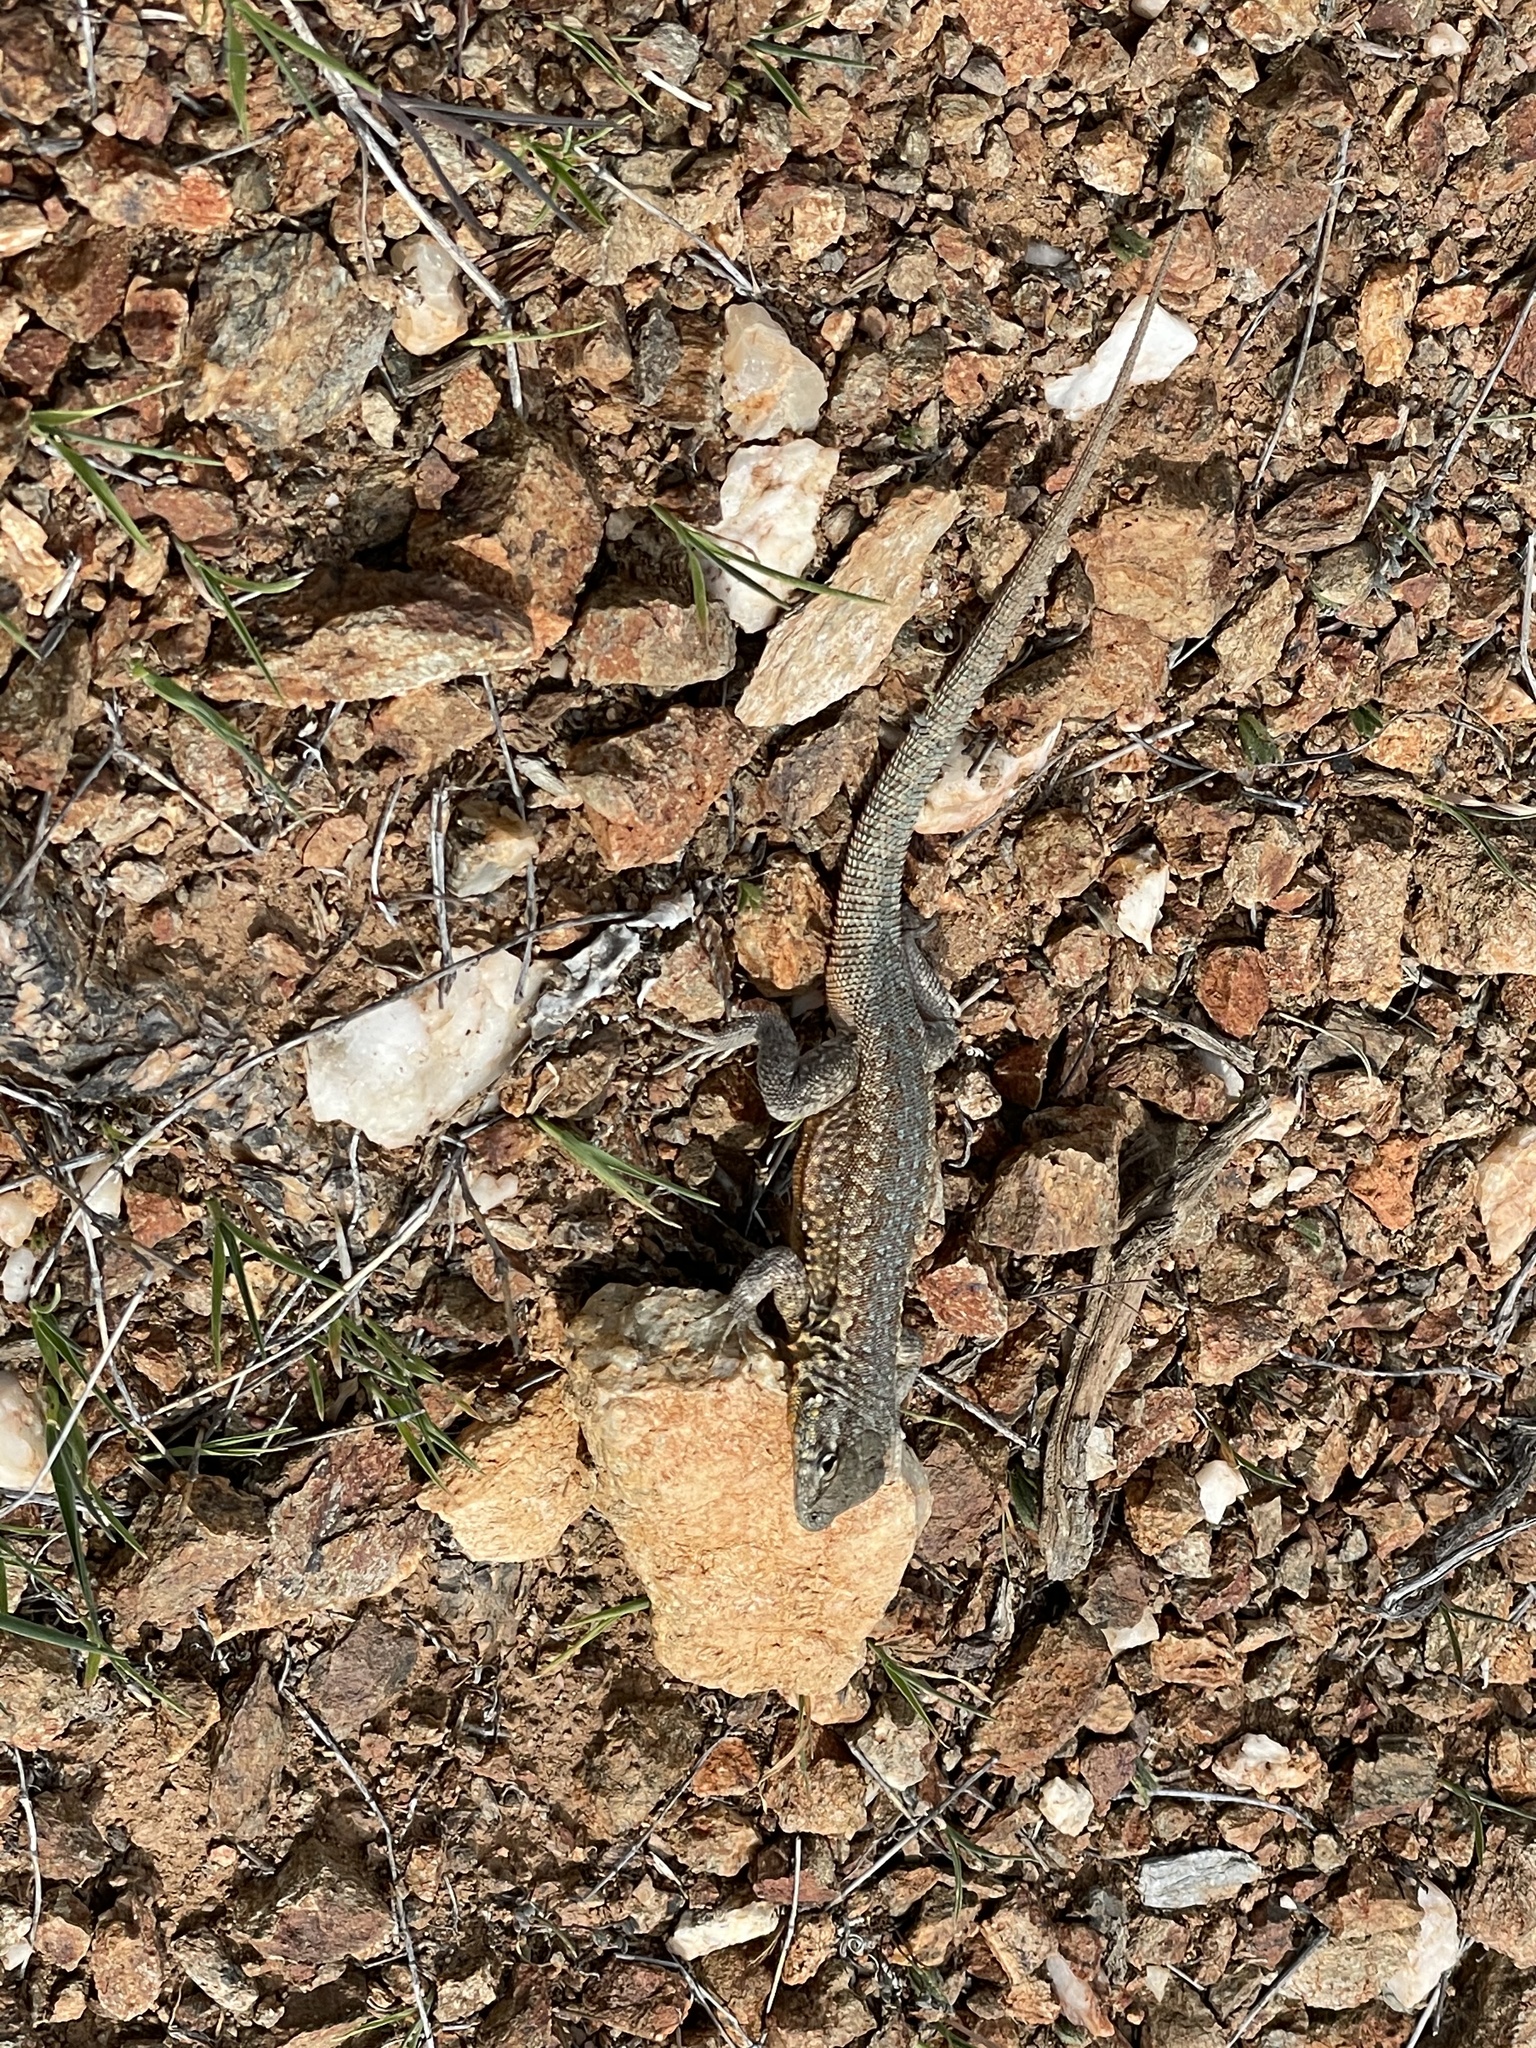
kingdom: Animalia
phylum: Chordata
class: Squamata
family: Phrynosomatidae
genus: Uta
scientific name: Uta stansburiana
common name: Side-blotched lizard
